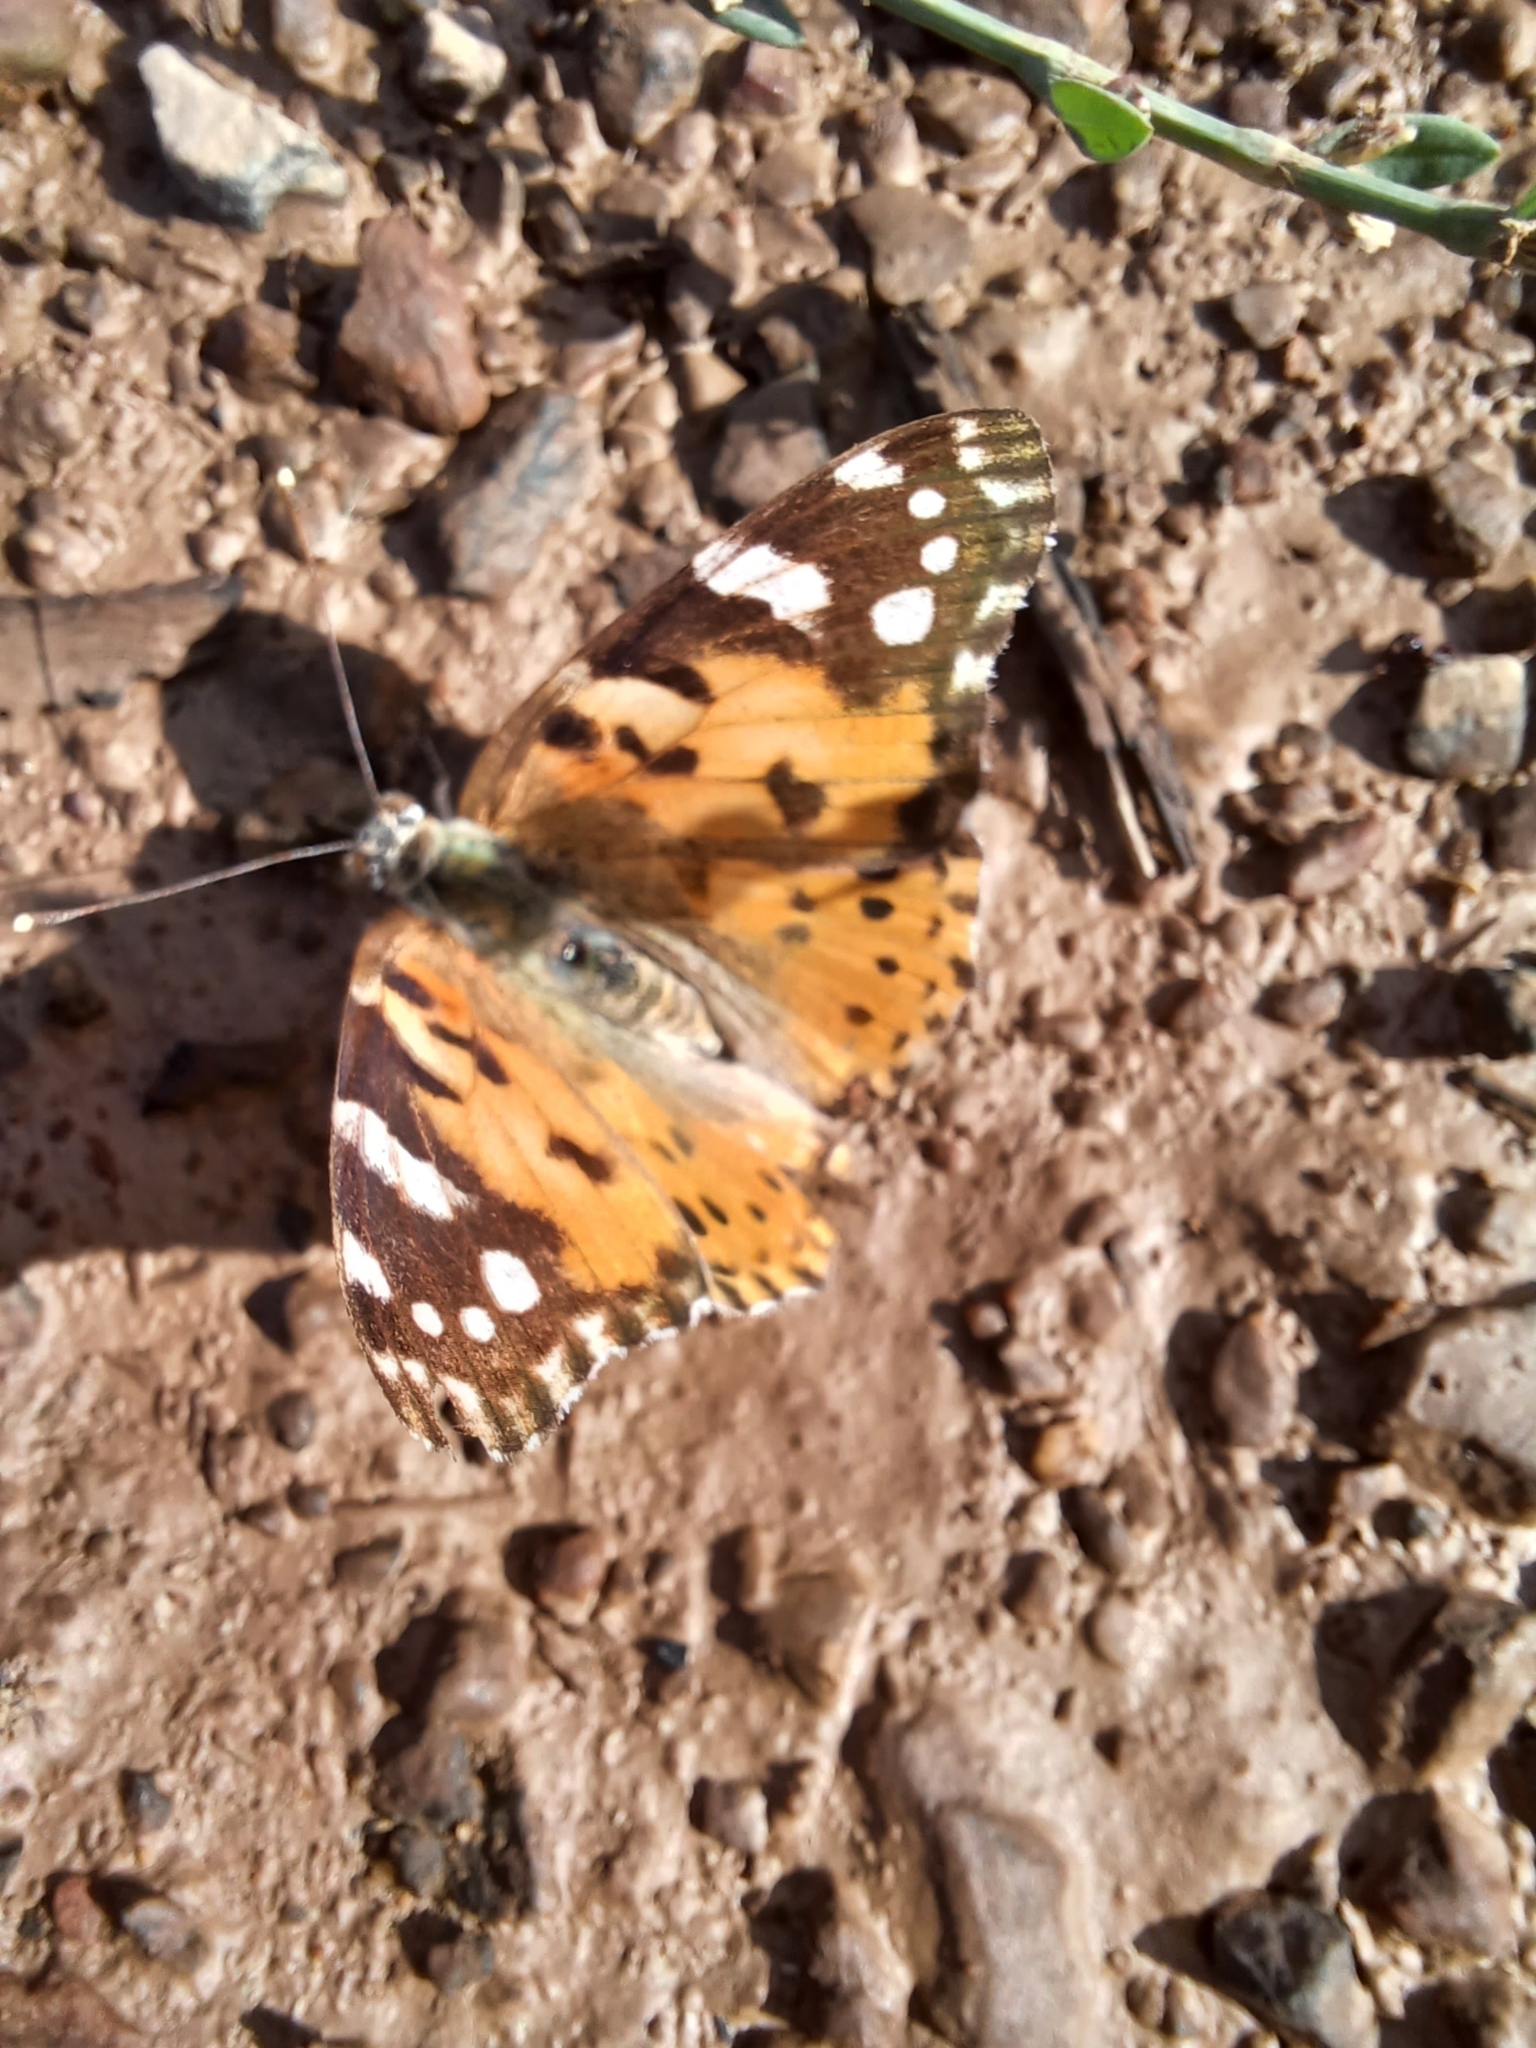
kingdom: Animalia
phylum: Arthropoda
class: Insecta
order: Lepidoptera
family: Nymphalidae
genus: Vanessa
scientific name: Vanessa cardui
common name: Painted lady
